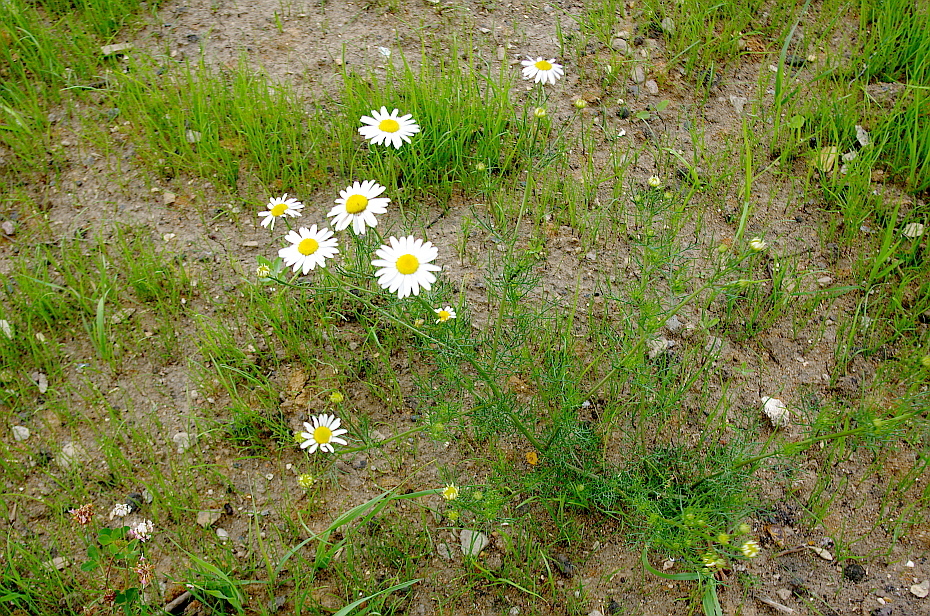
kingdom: Plantae
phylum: Tracheophyta
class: Magnoliopsida
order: Asterales
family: Asteraceae
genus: Tripleurospermum
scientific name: Tripleurospermum inodorum
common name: Scentless mayweed
